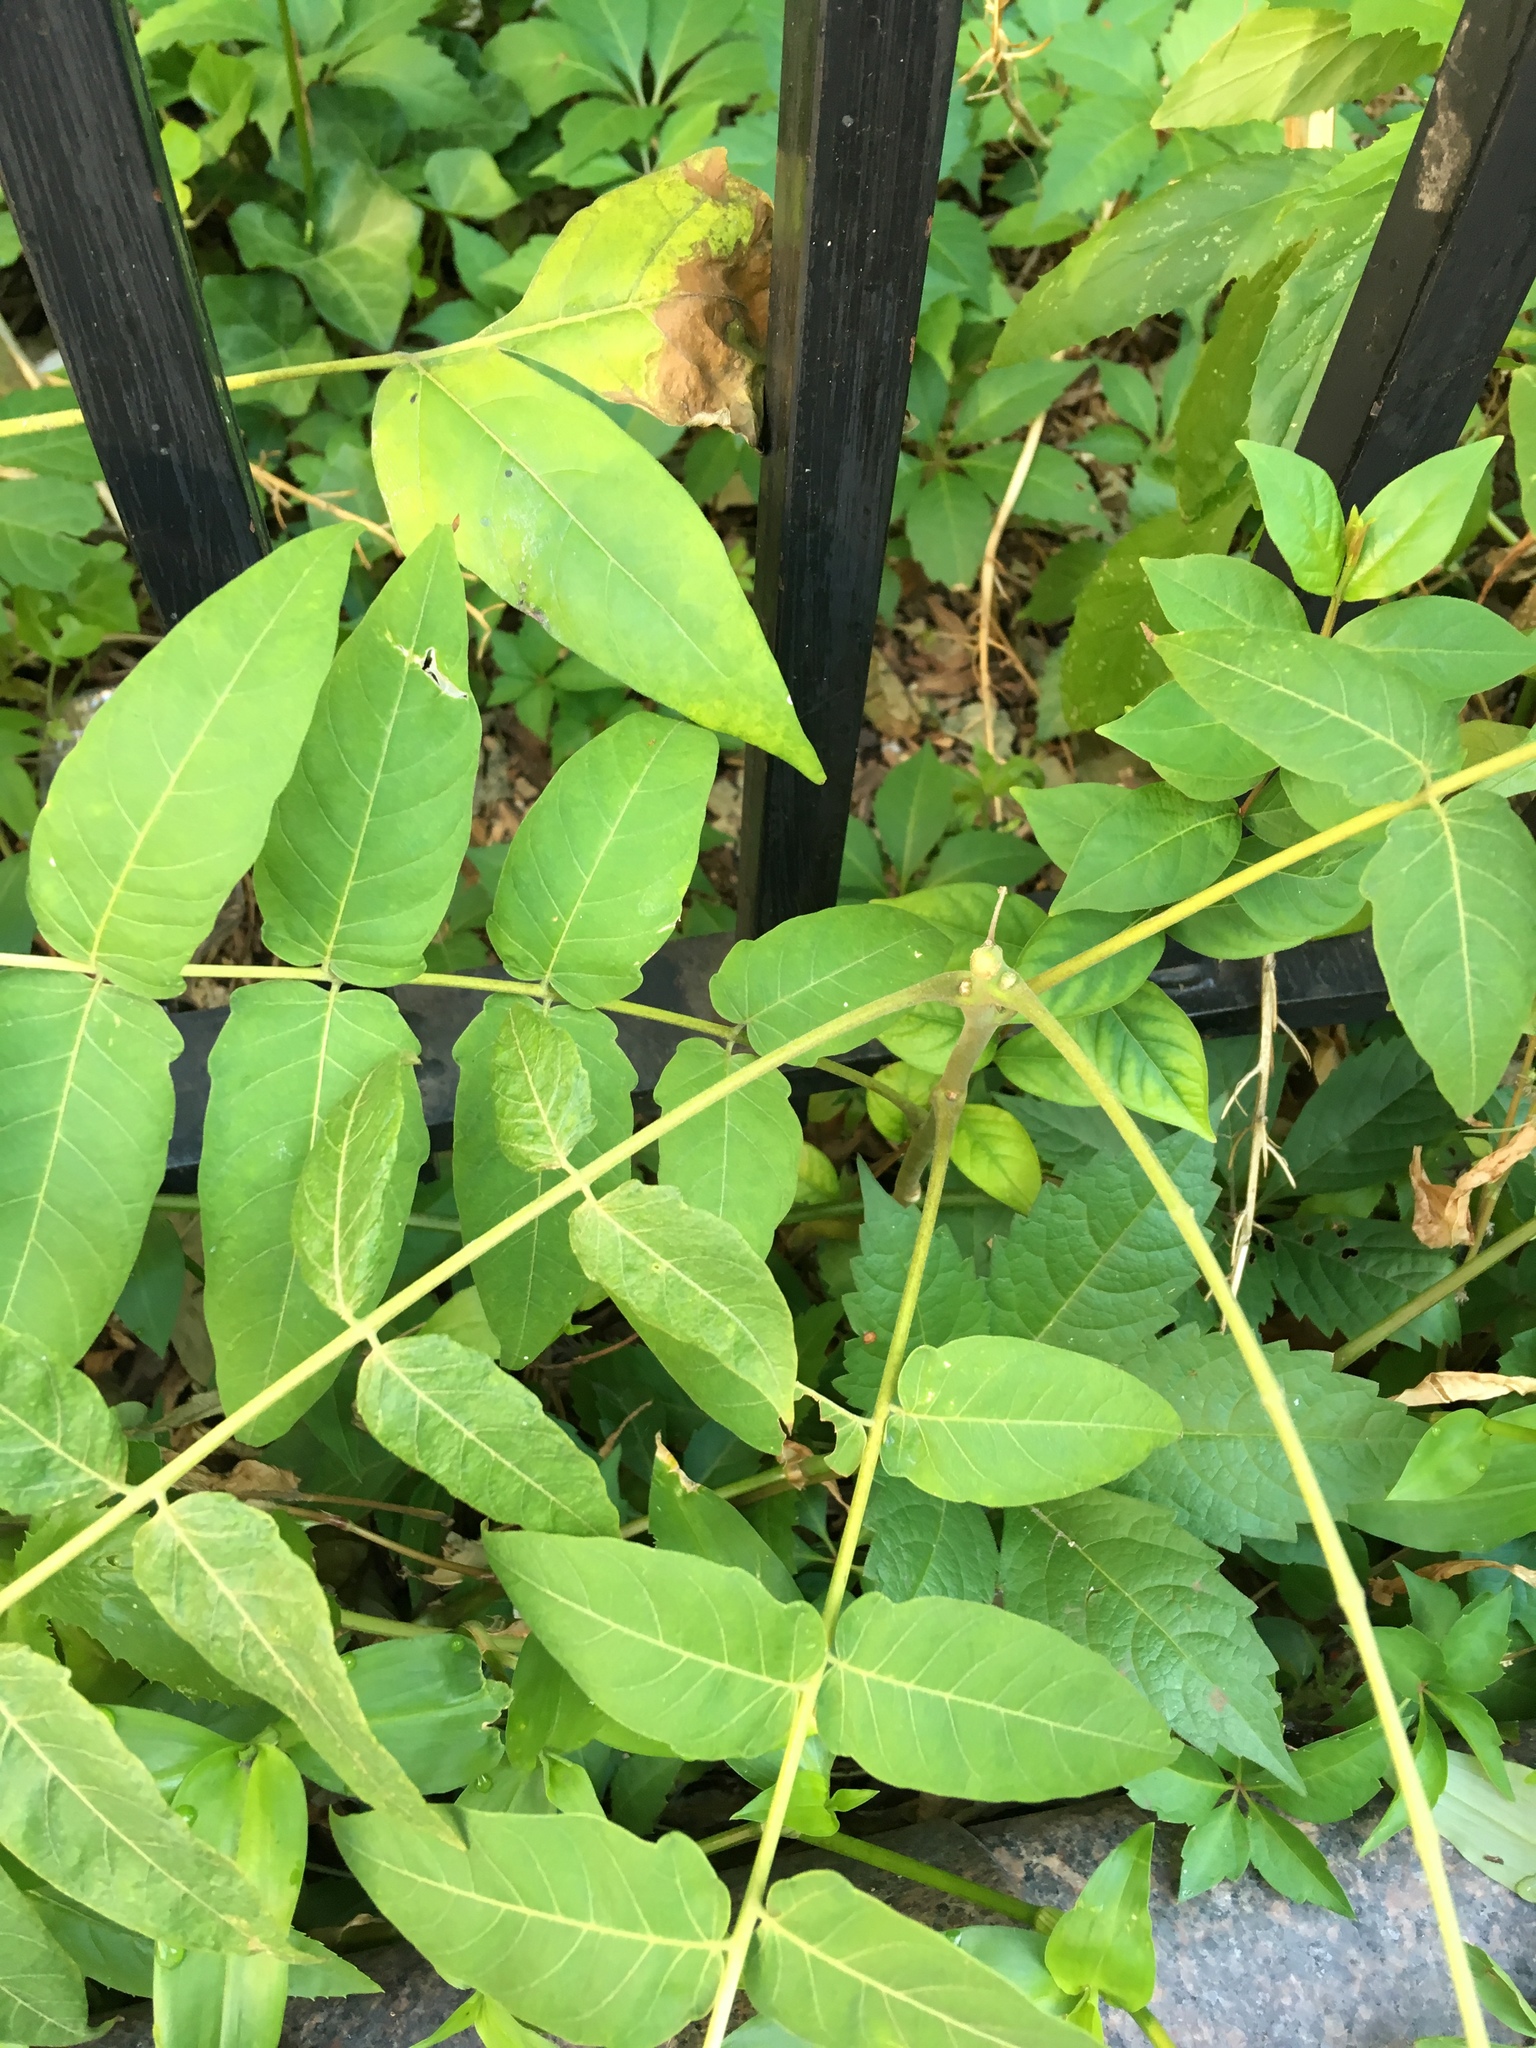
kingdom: Plantae
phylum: Tracheophyta
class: Magnoliopsida
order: Sapindales
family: Simaroubaceae
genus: Ailanthus
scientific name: Ailanthus altissima
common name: Tree-of-heaven
